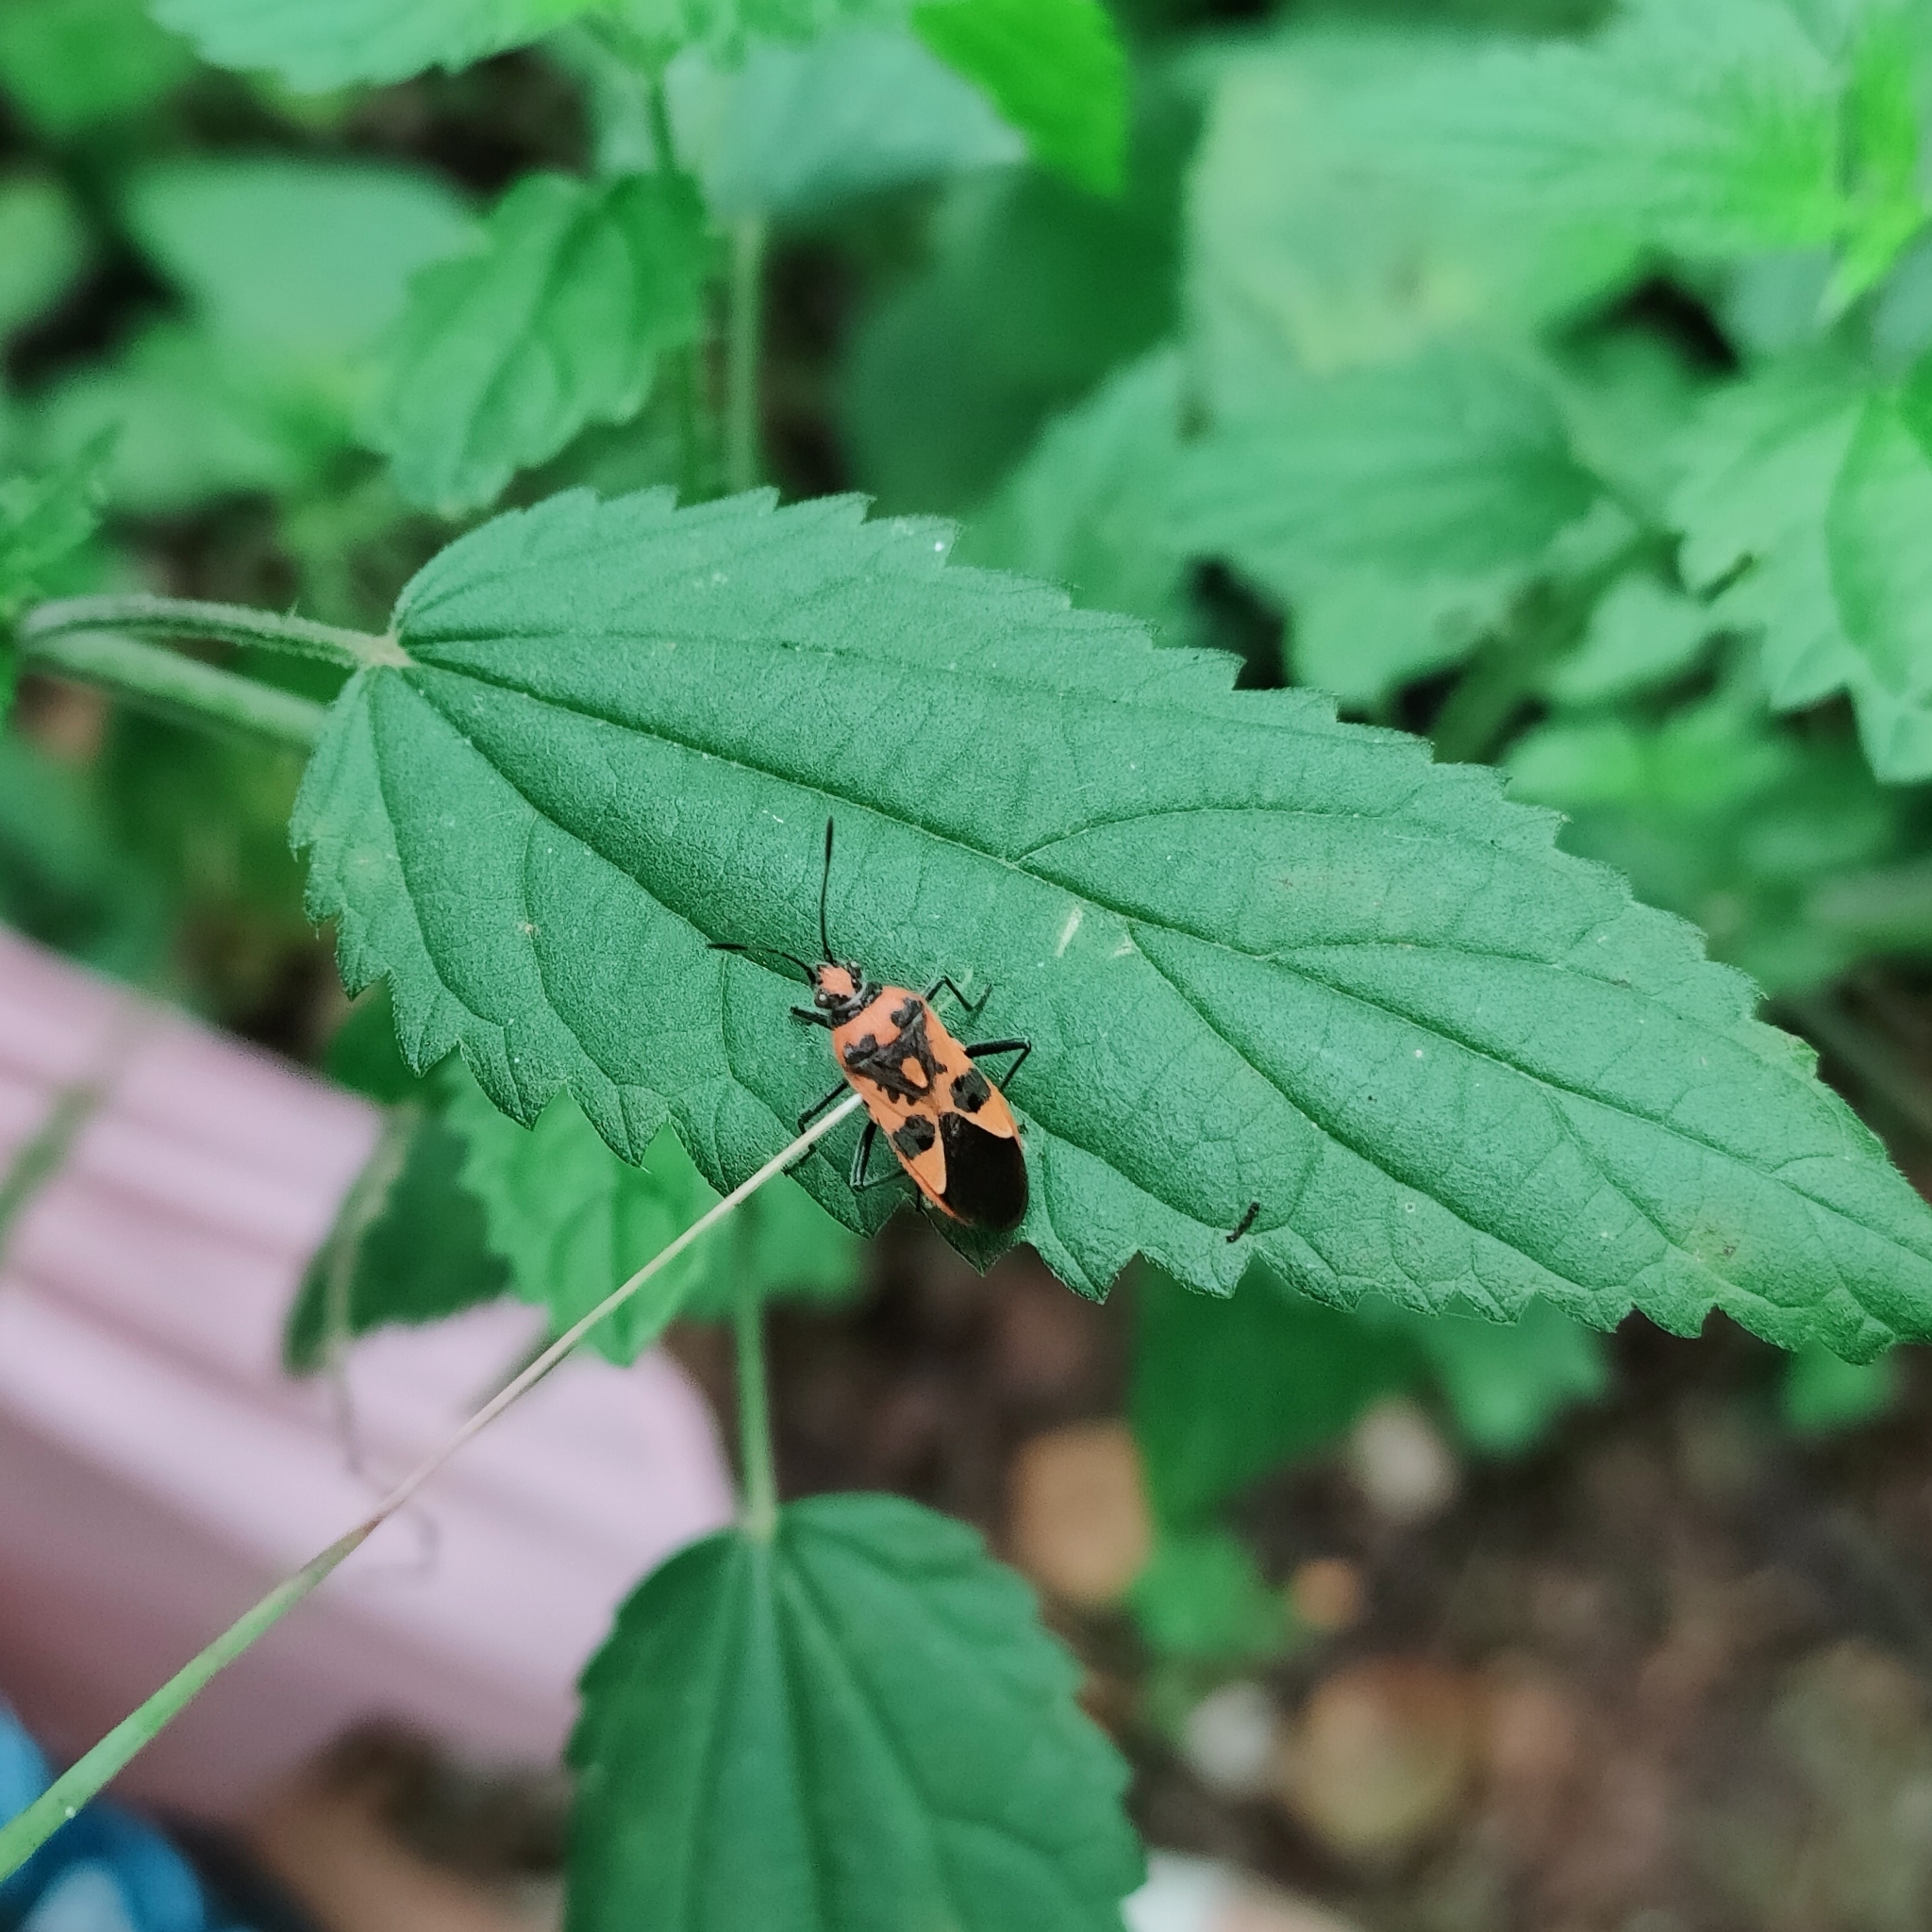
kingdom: Animalia
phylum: Arthropoda
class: Insecta
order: Hemiptera
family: Rhopalidae
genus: Corizus
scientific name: Corizus hyoscyami
